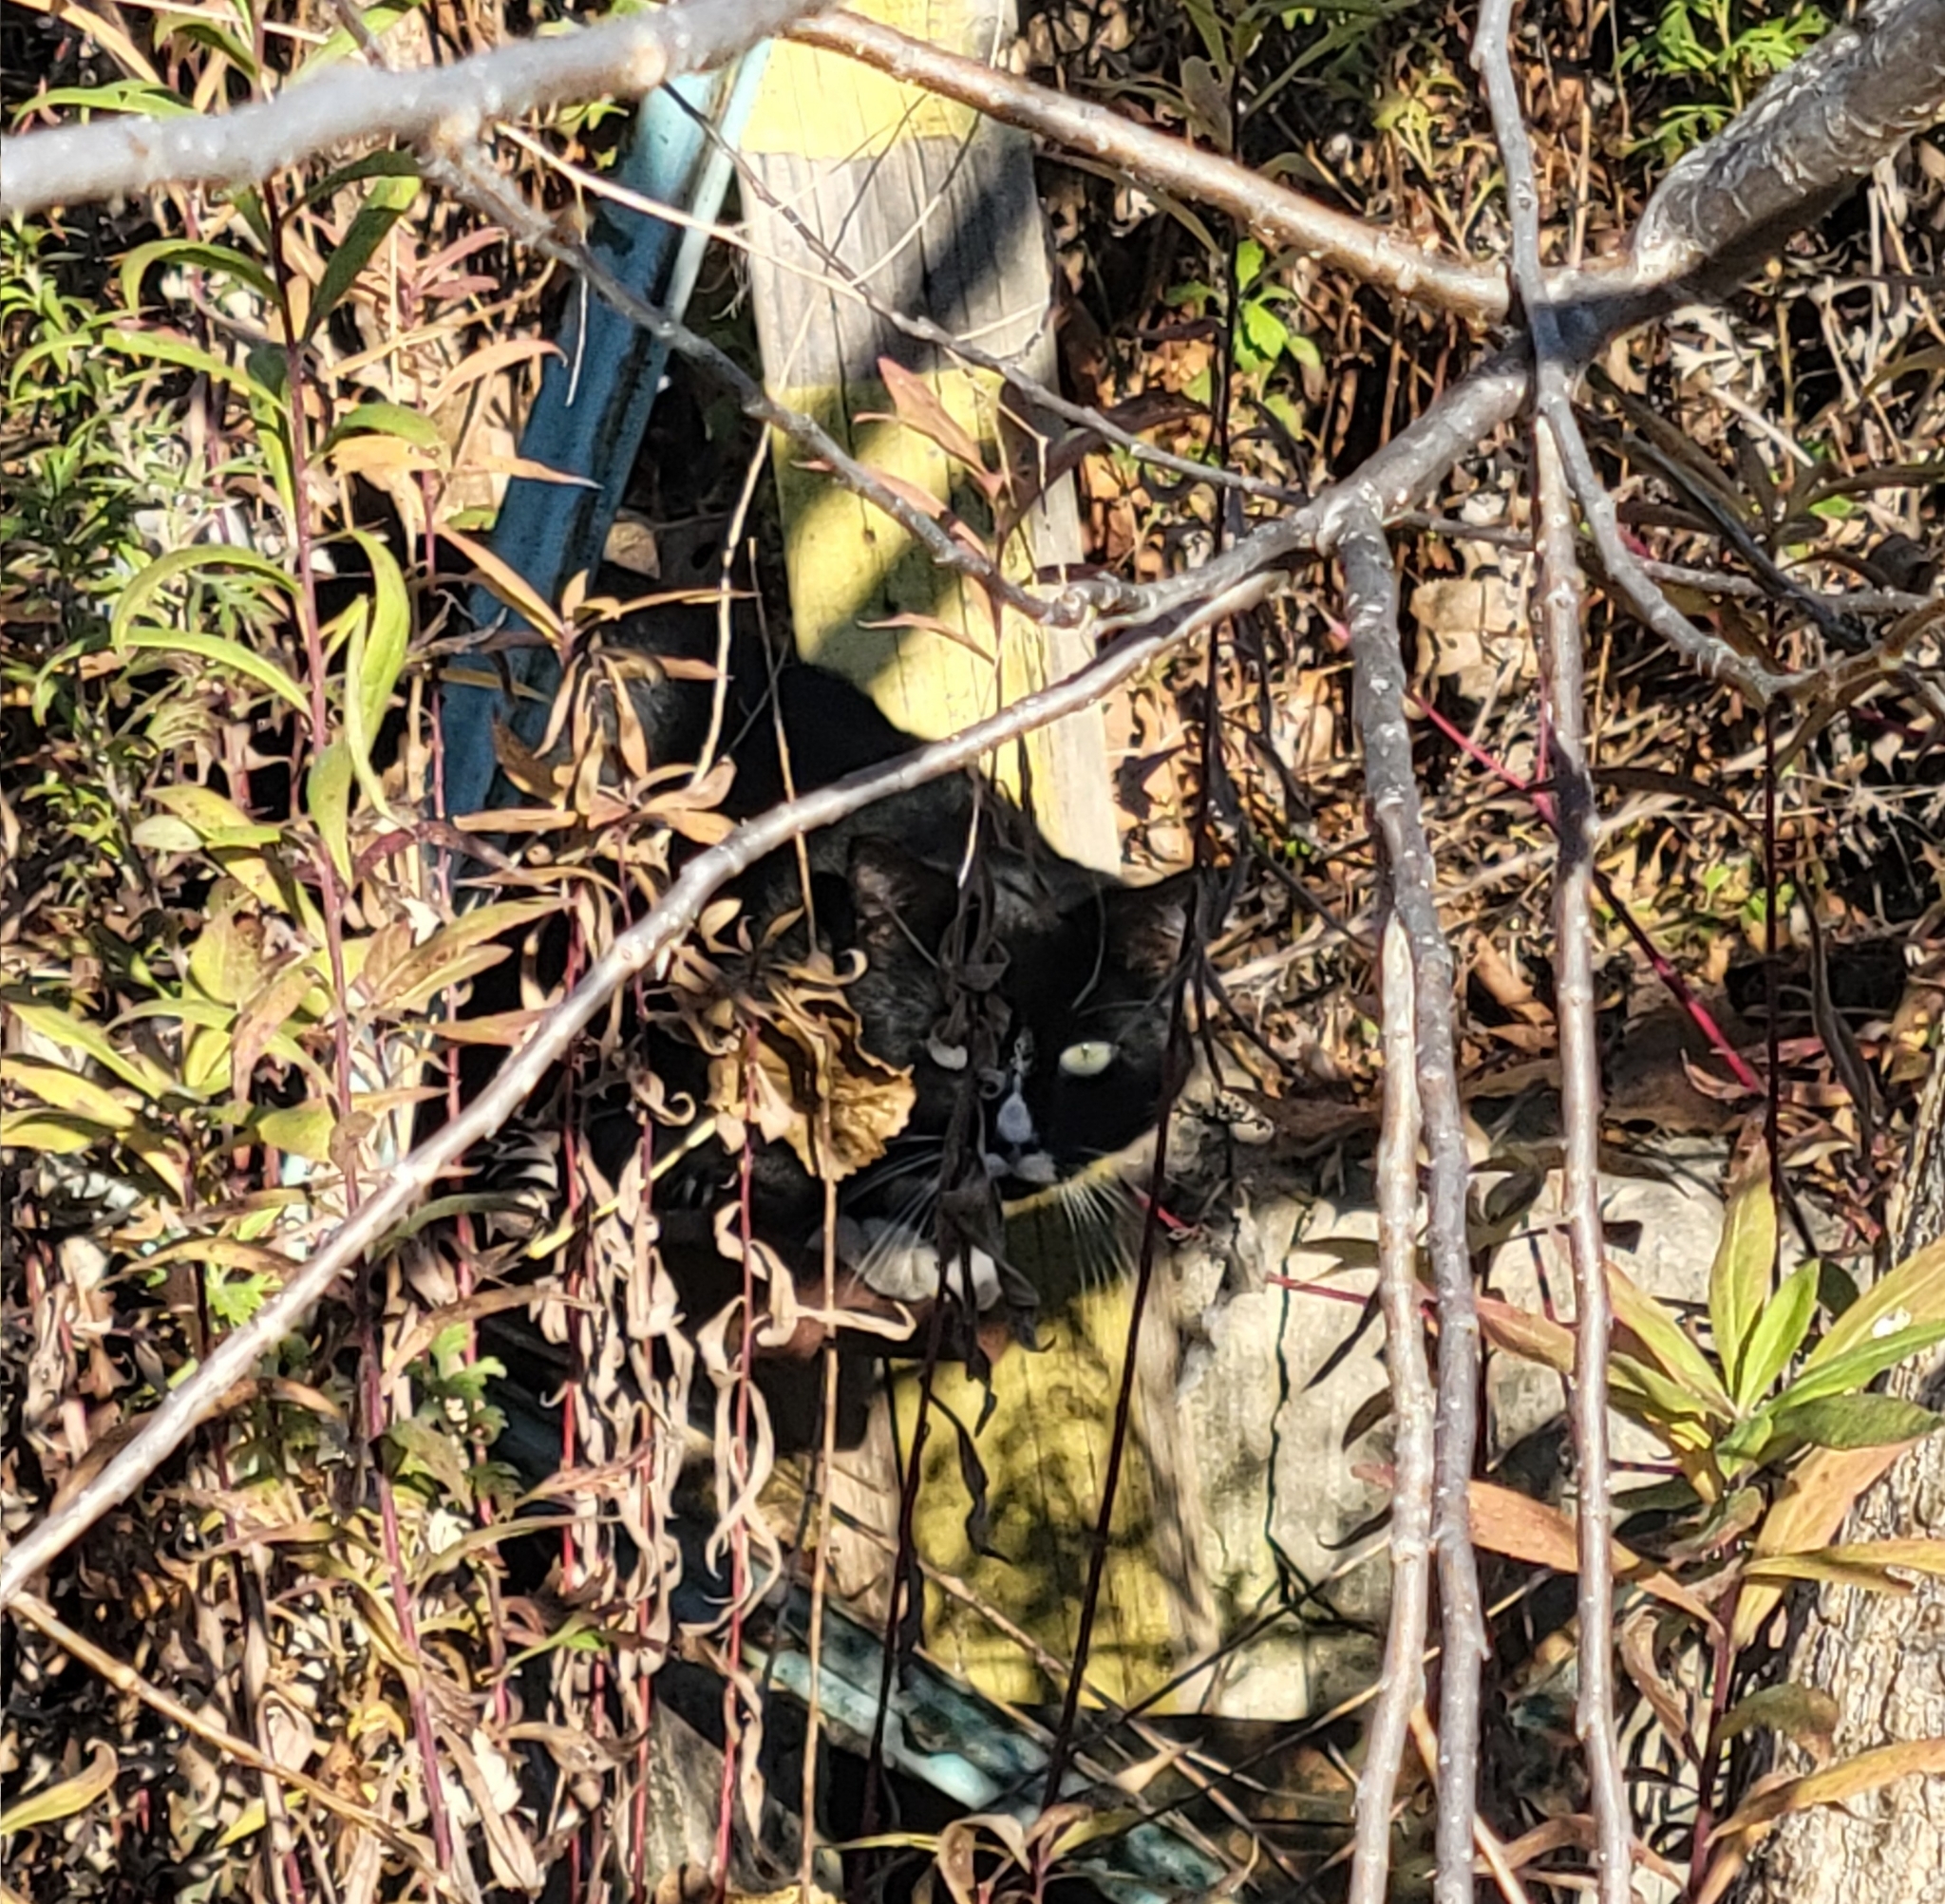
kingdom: Animalia
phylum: Chordata
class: Mammalia
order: Carnivora
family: Felidae
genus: Felis
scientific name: Felis catus
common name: Domestic cat
